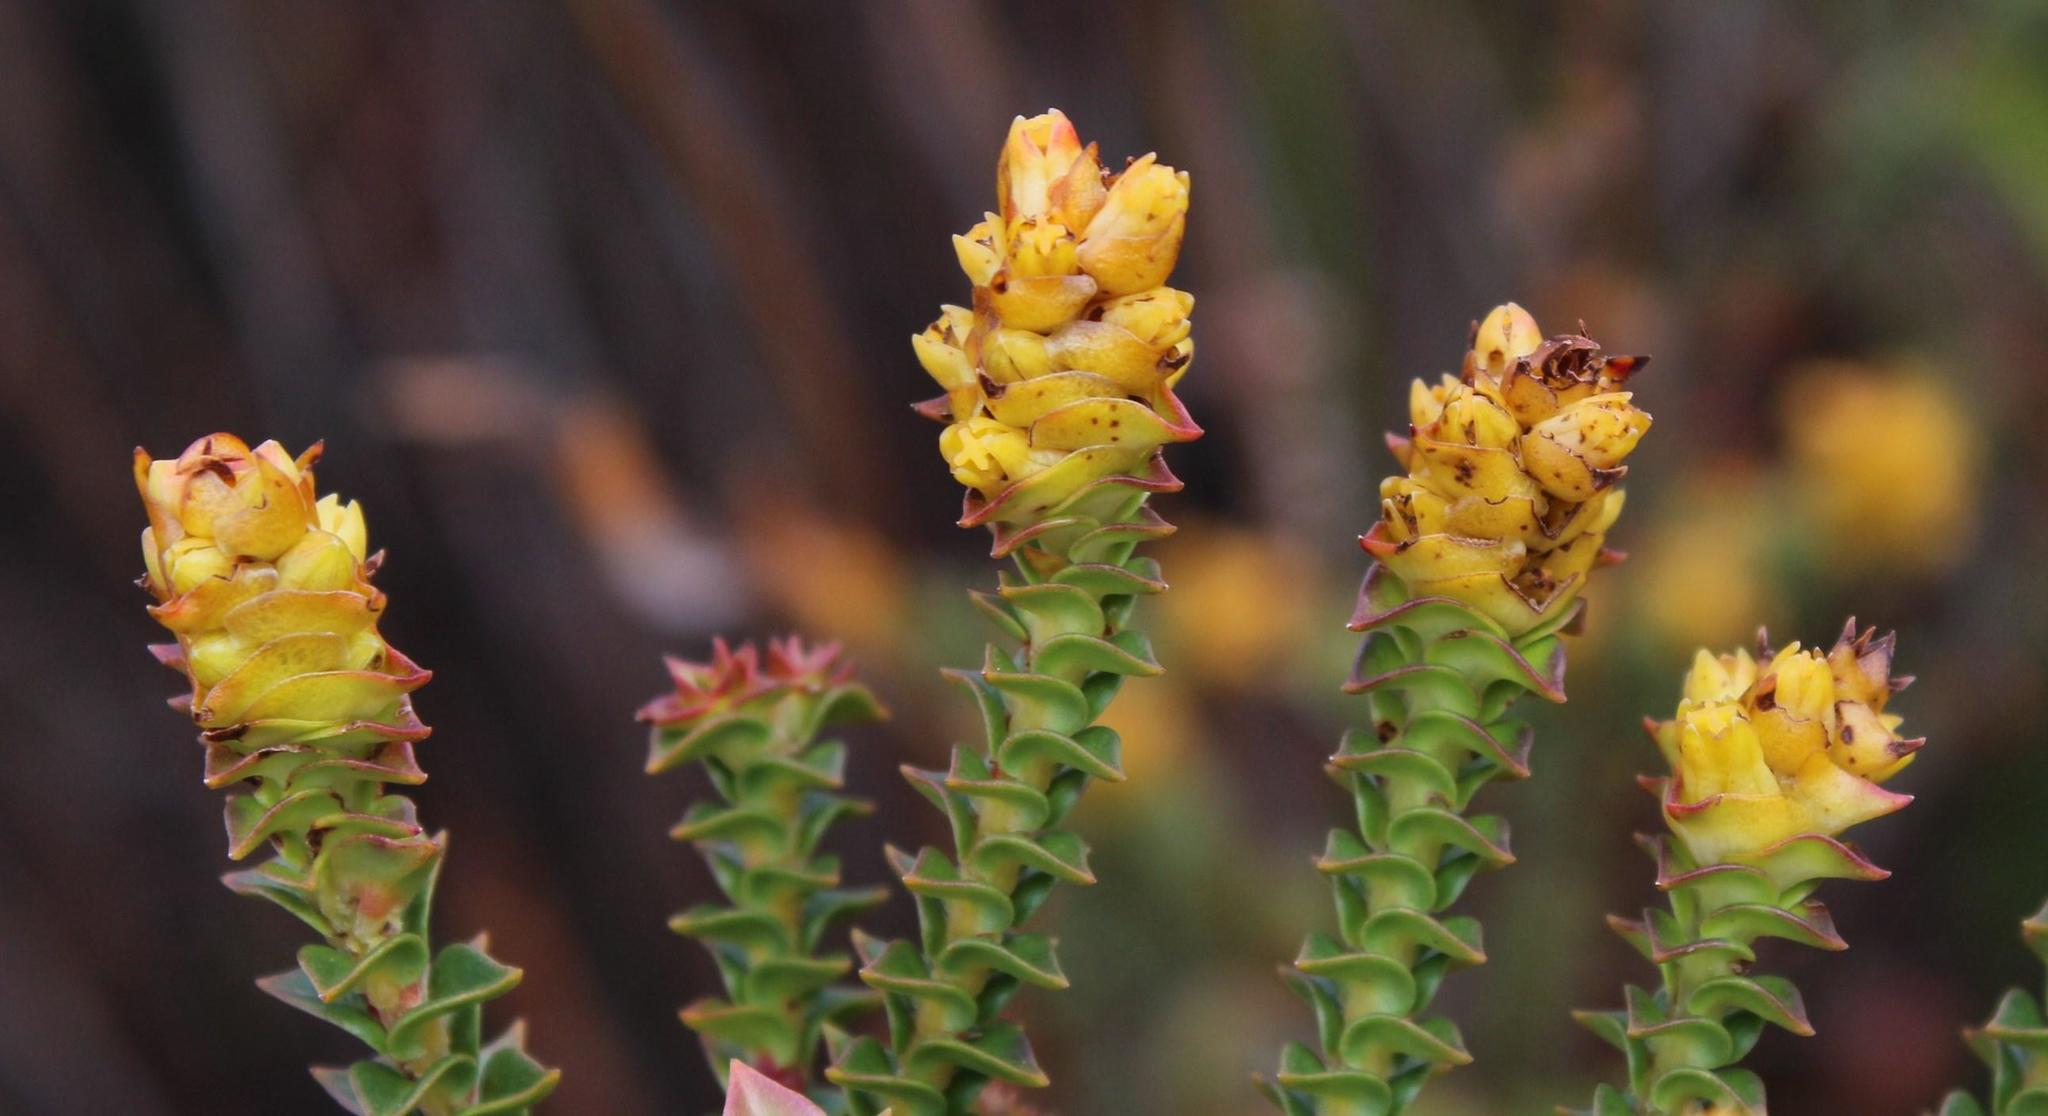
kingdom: Plantae
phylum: Tracheophyta
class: Magnoliopsida
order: Myrtales
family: Penaeaceae
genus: Penaea
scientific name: Penaea mucronata
